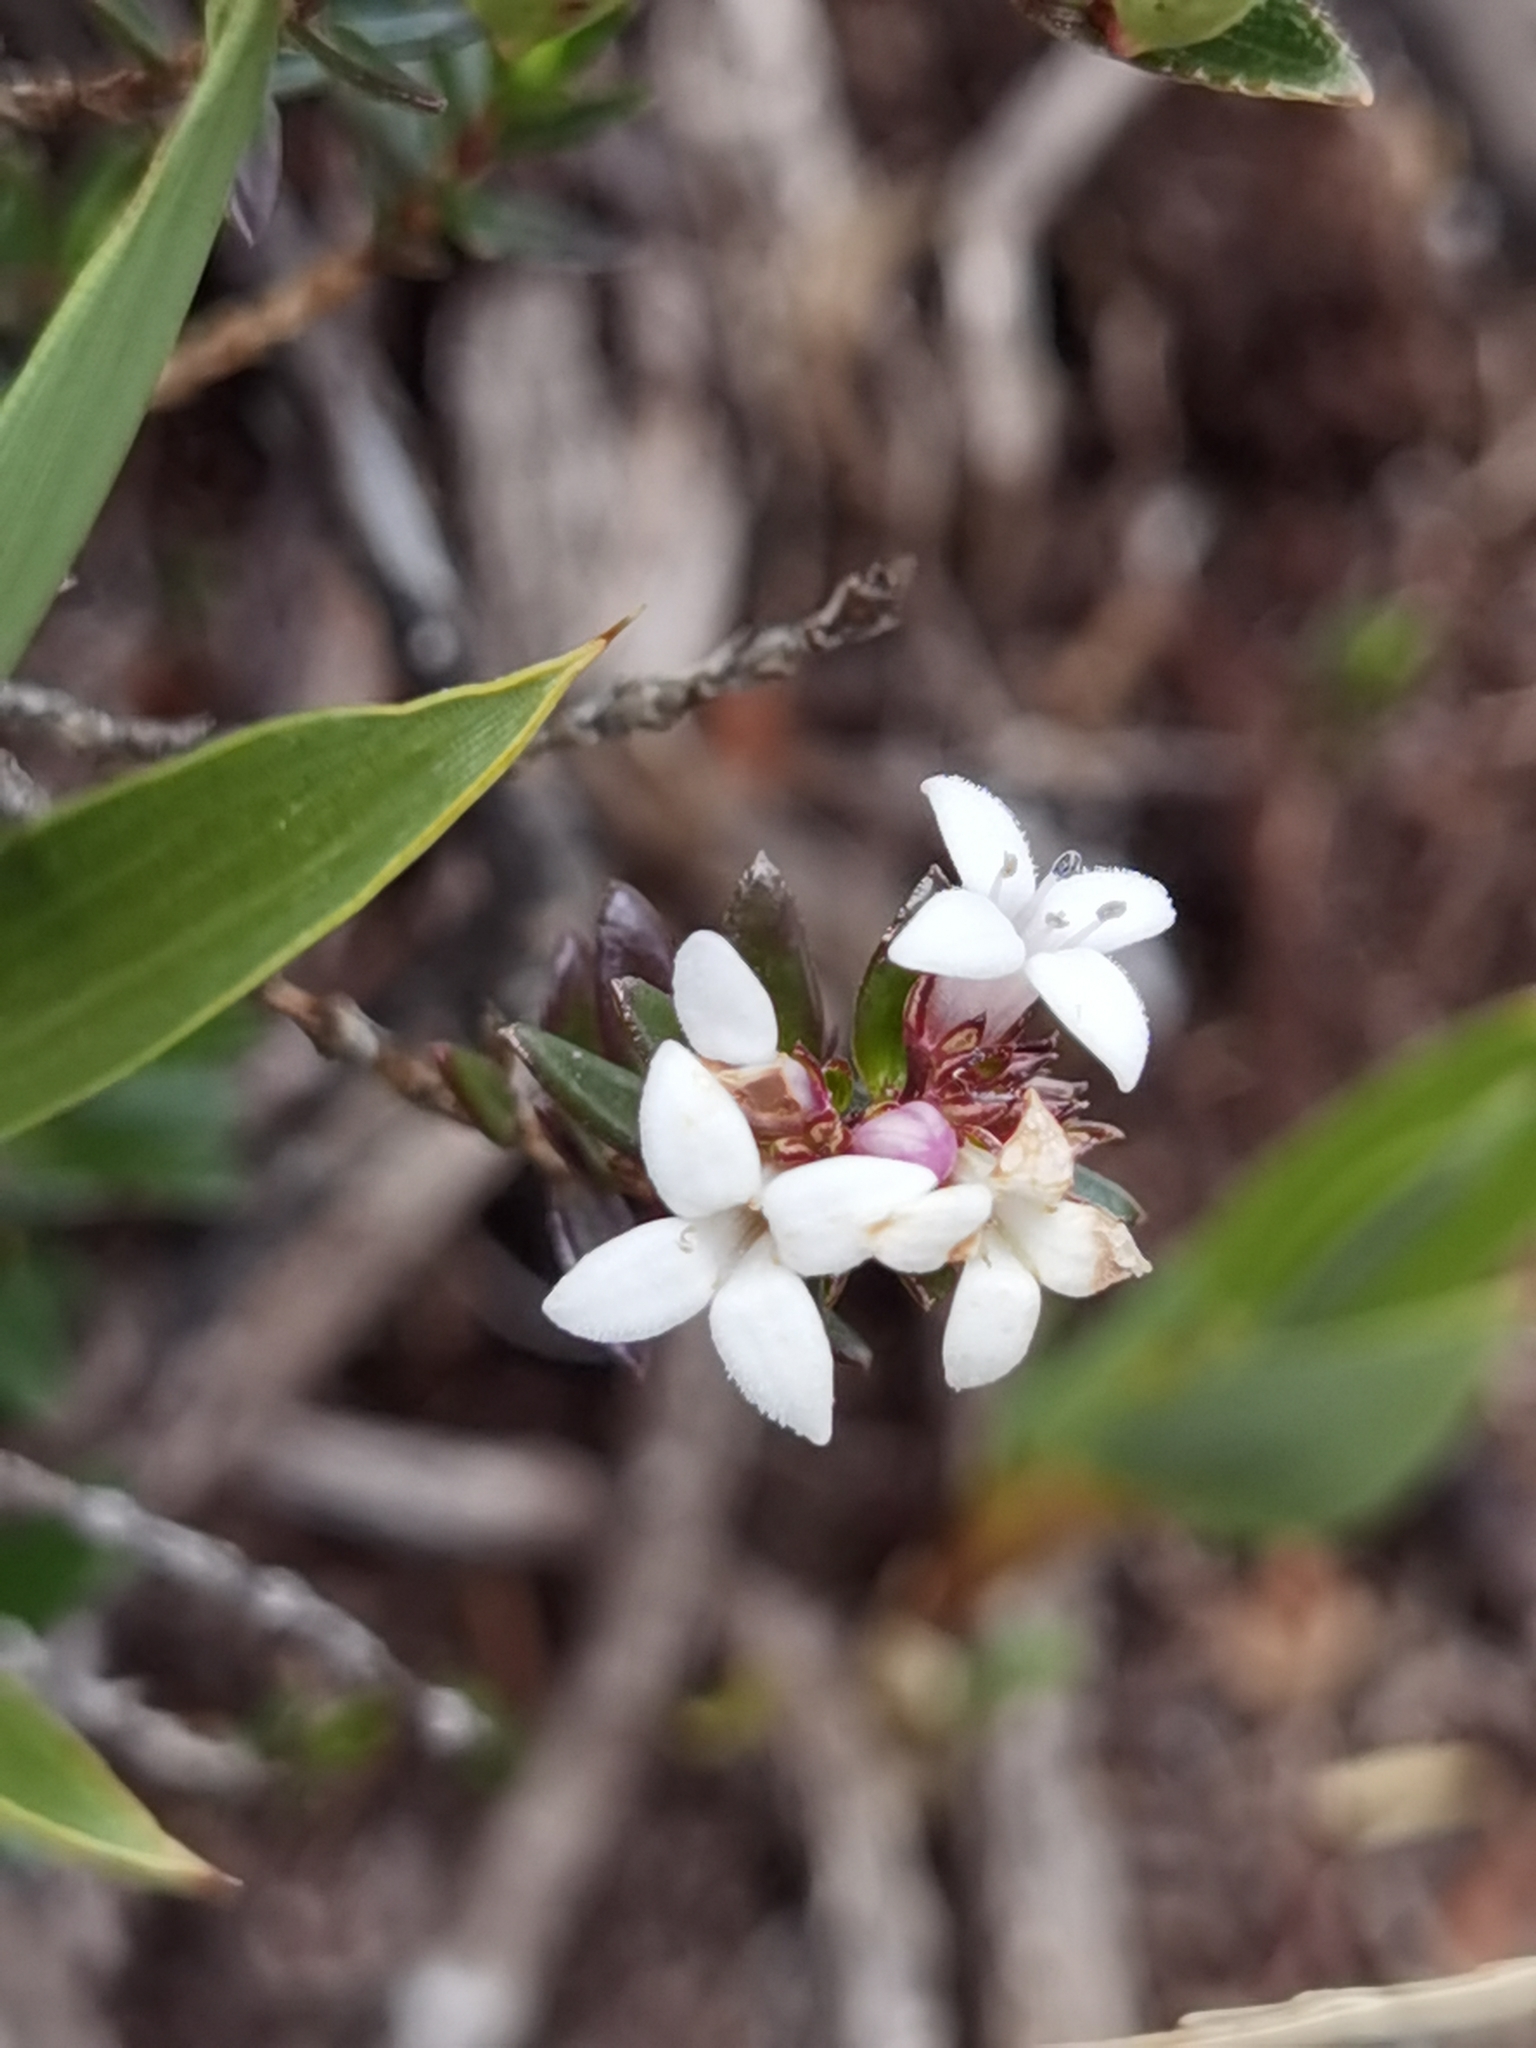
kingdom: Plantae
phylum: Tracheophyta
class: Magnoliopsida
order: Gentianales
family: Rubiaceae
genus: Arcytophyllum
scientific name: Arcytophyllum lavarum
